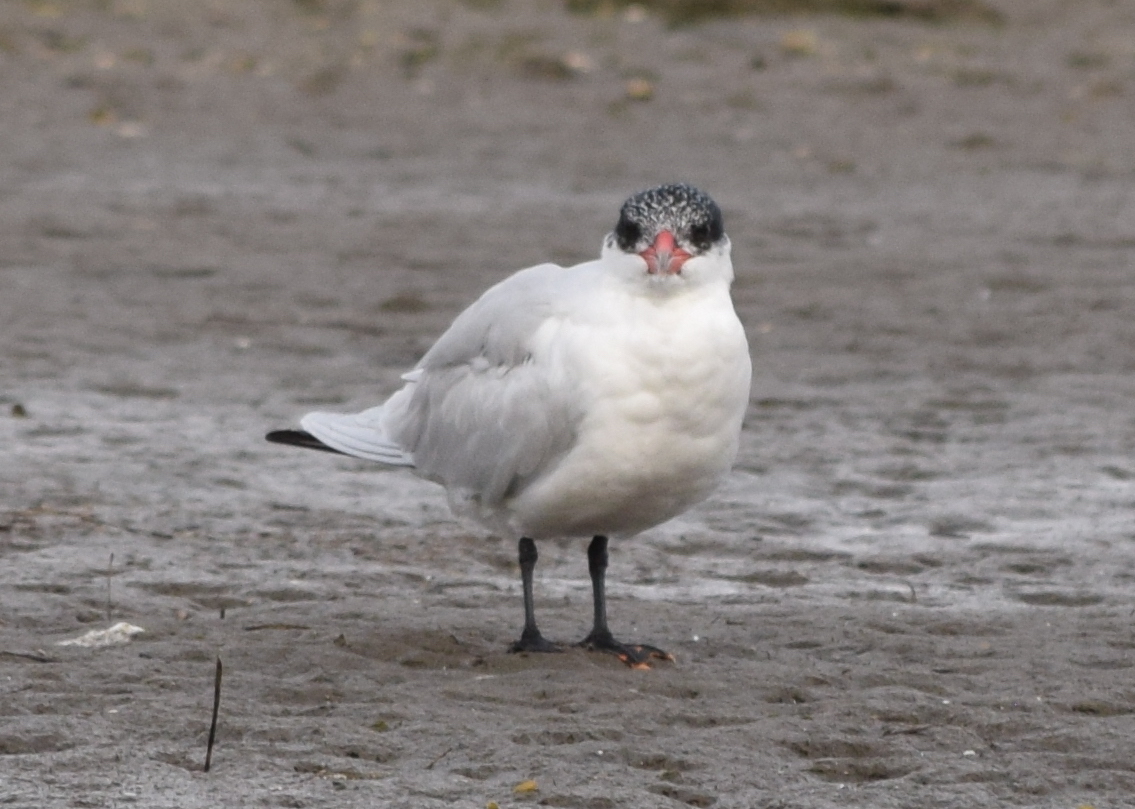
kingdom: Animalia
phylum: Chordata
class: Aves
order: Charadriiformes
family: Laridae
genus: Hydroprogne
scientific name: Hydroprogne caspia
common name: Caspian tern
